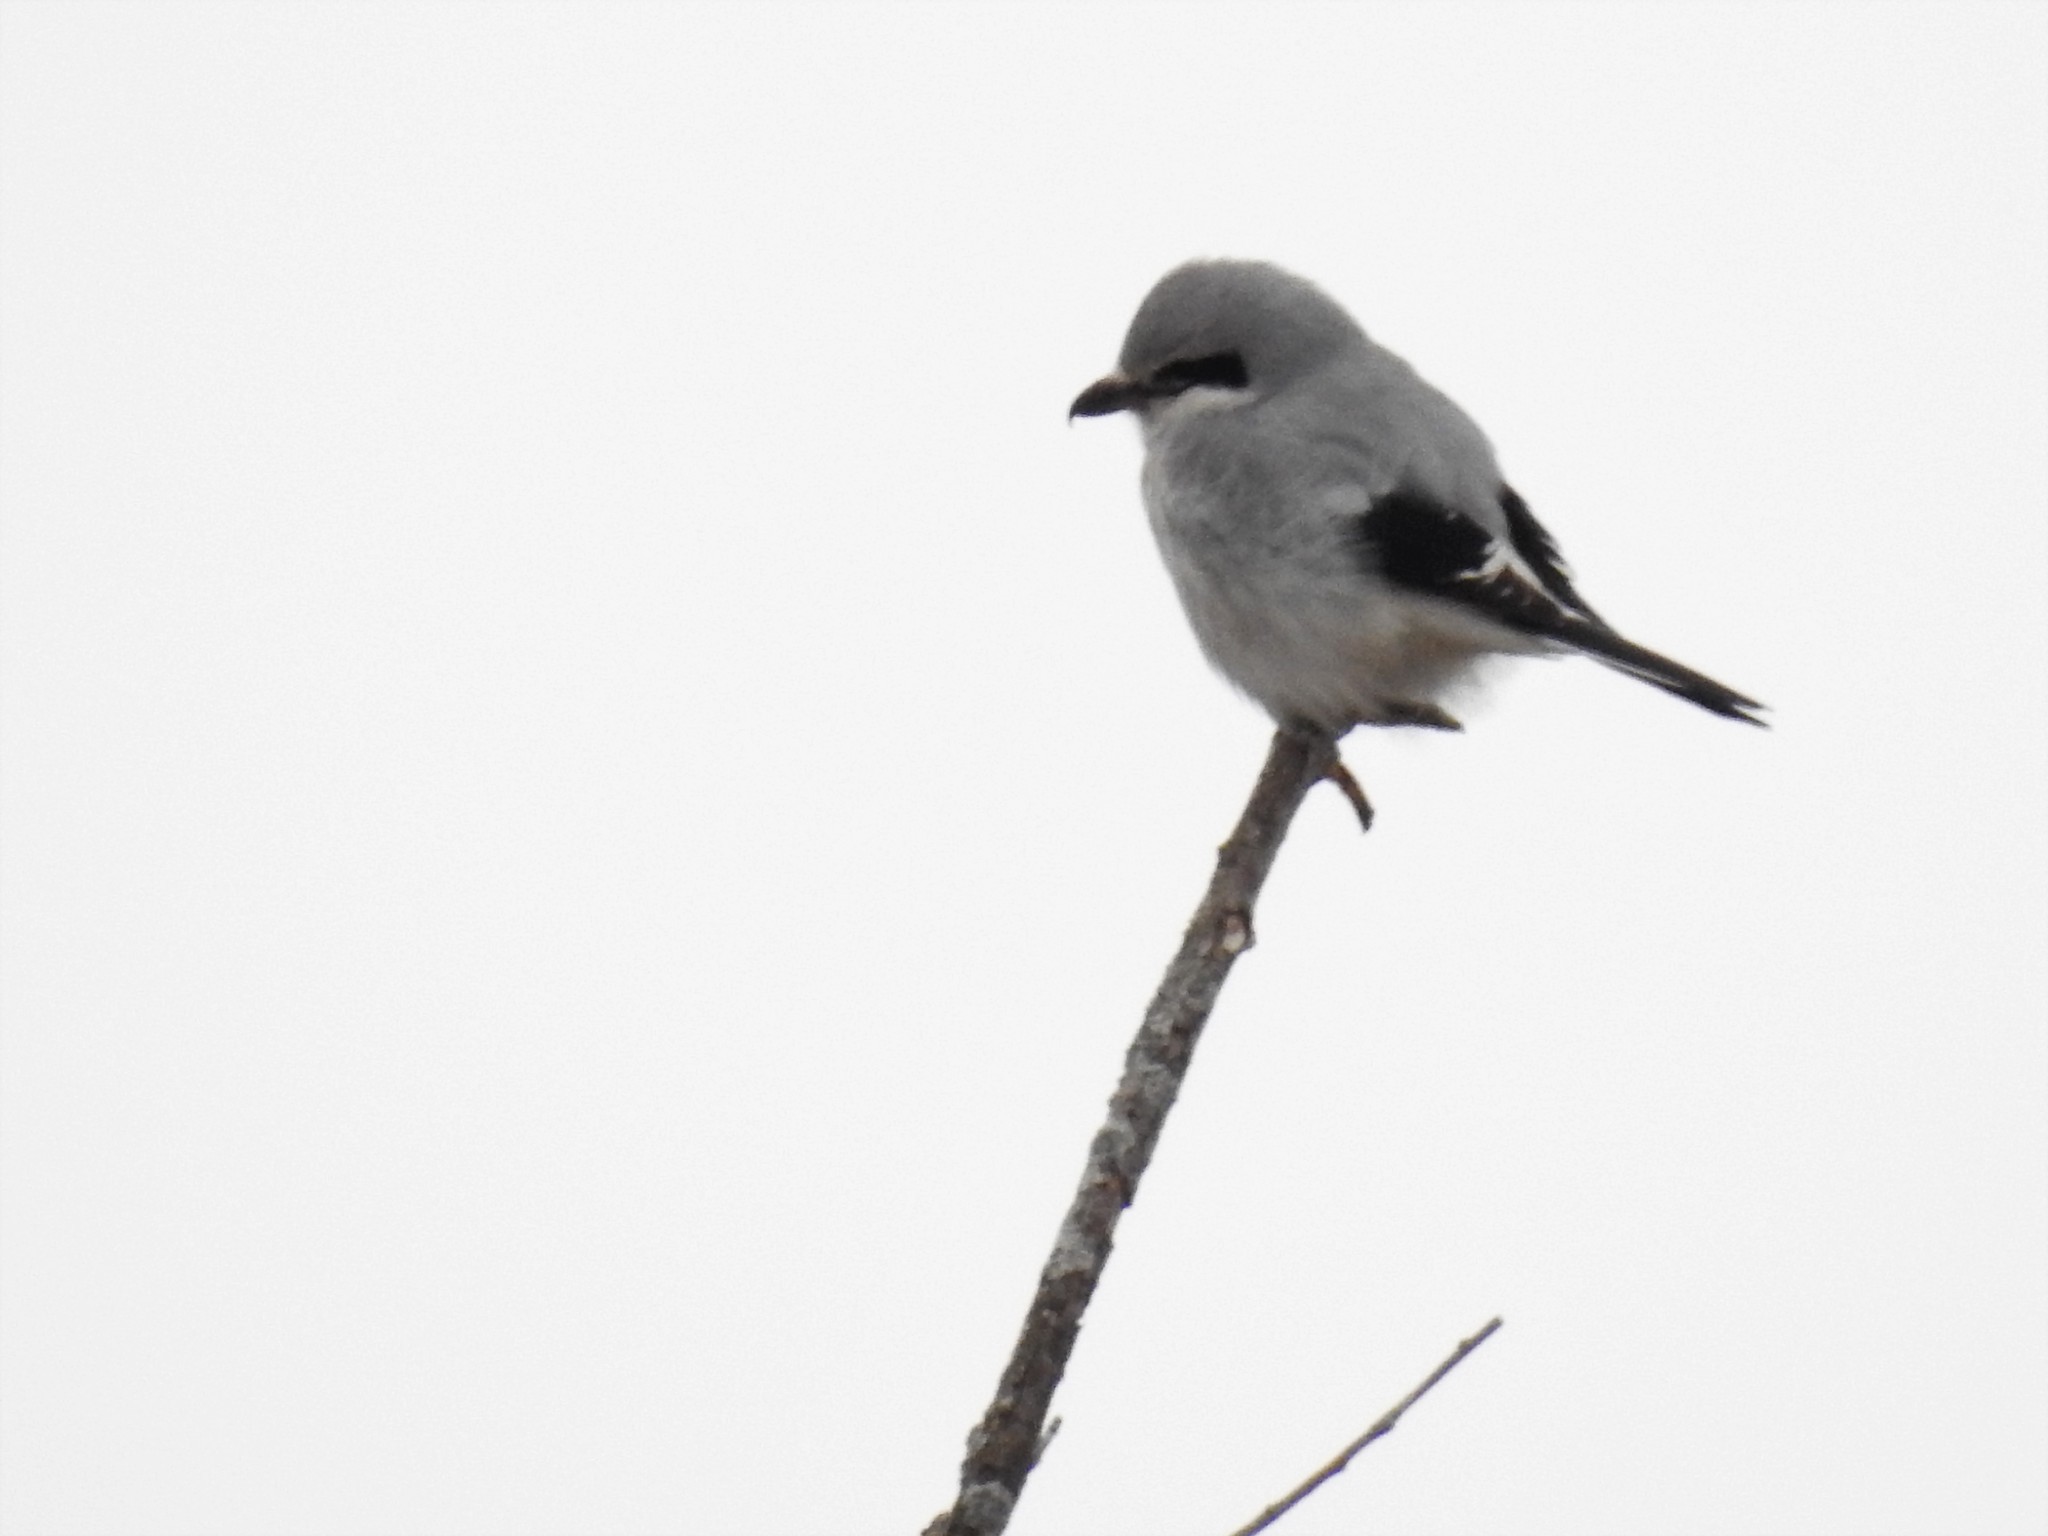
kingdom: Animalia
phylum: Chordata
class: Aves
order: Passeriformes
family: Laniidae
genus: Lanius
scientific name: Lanius borealis
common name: Northern shrike
